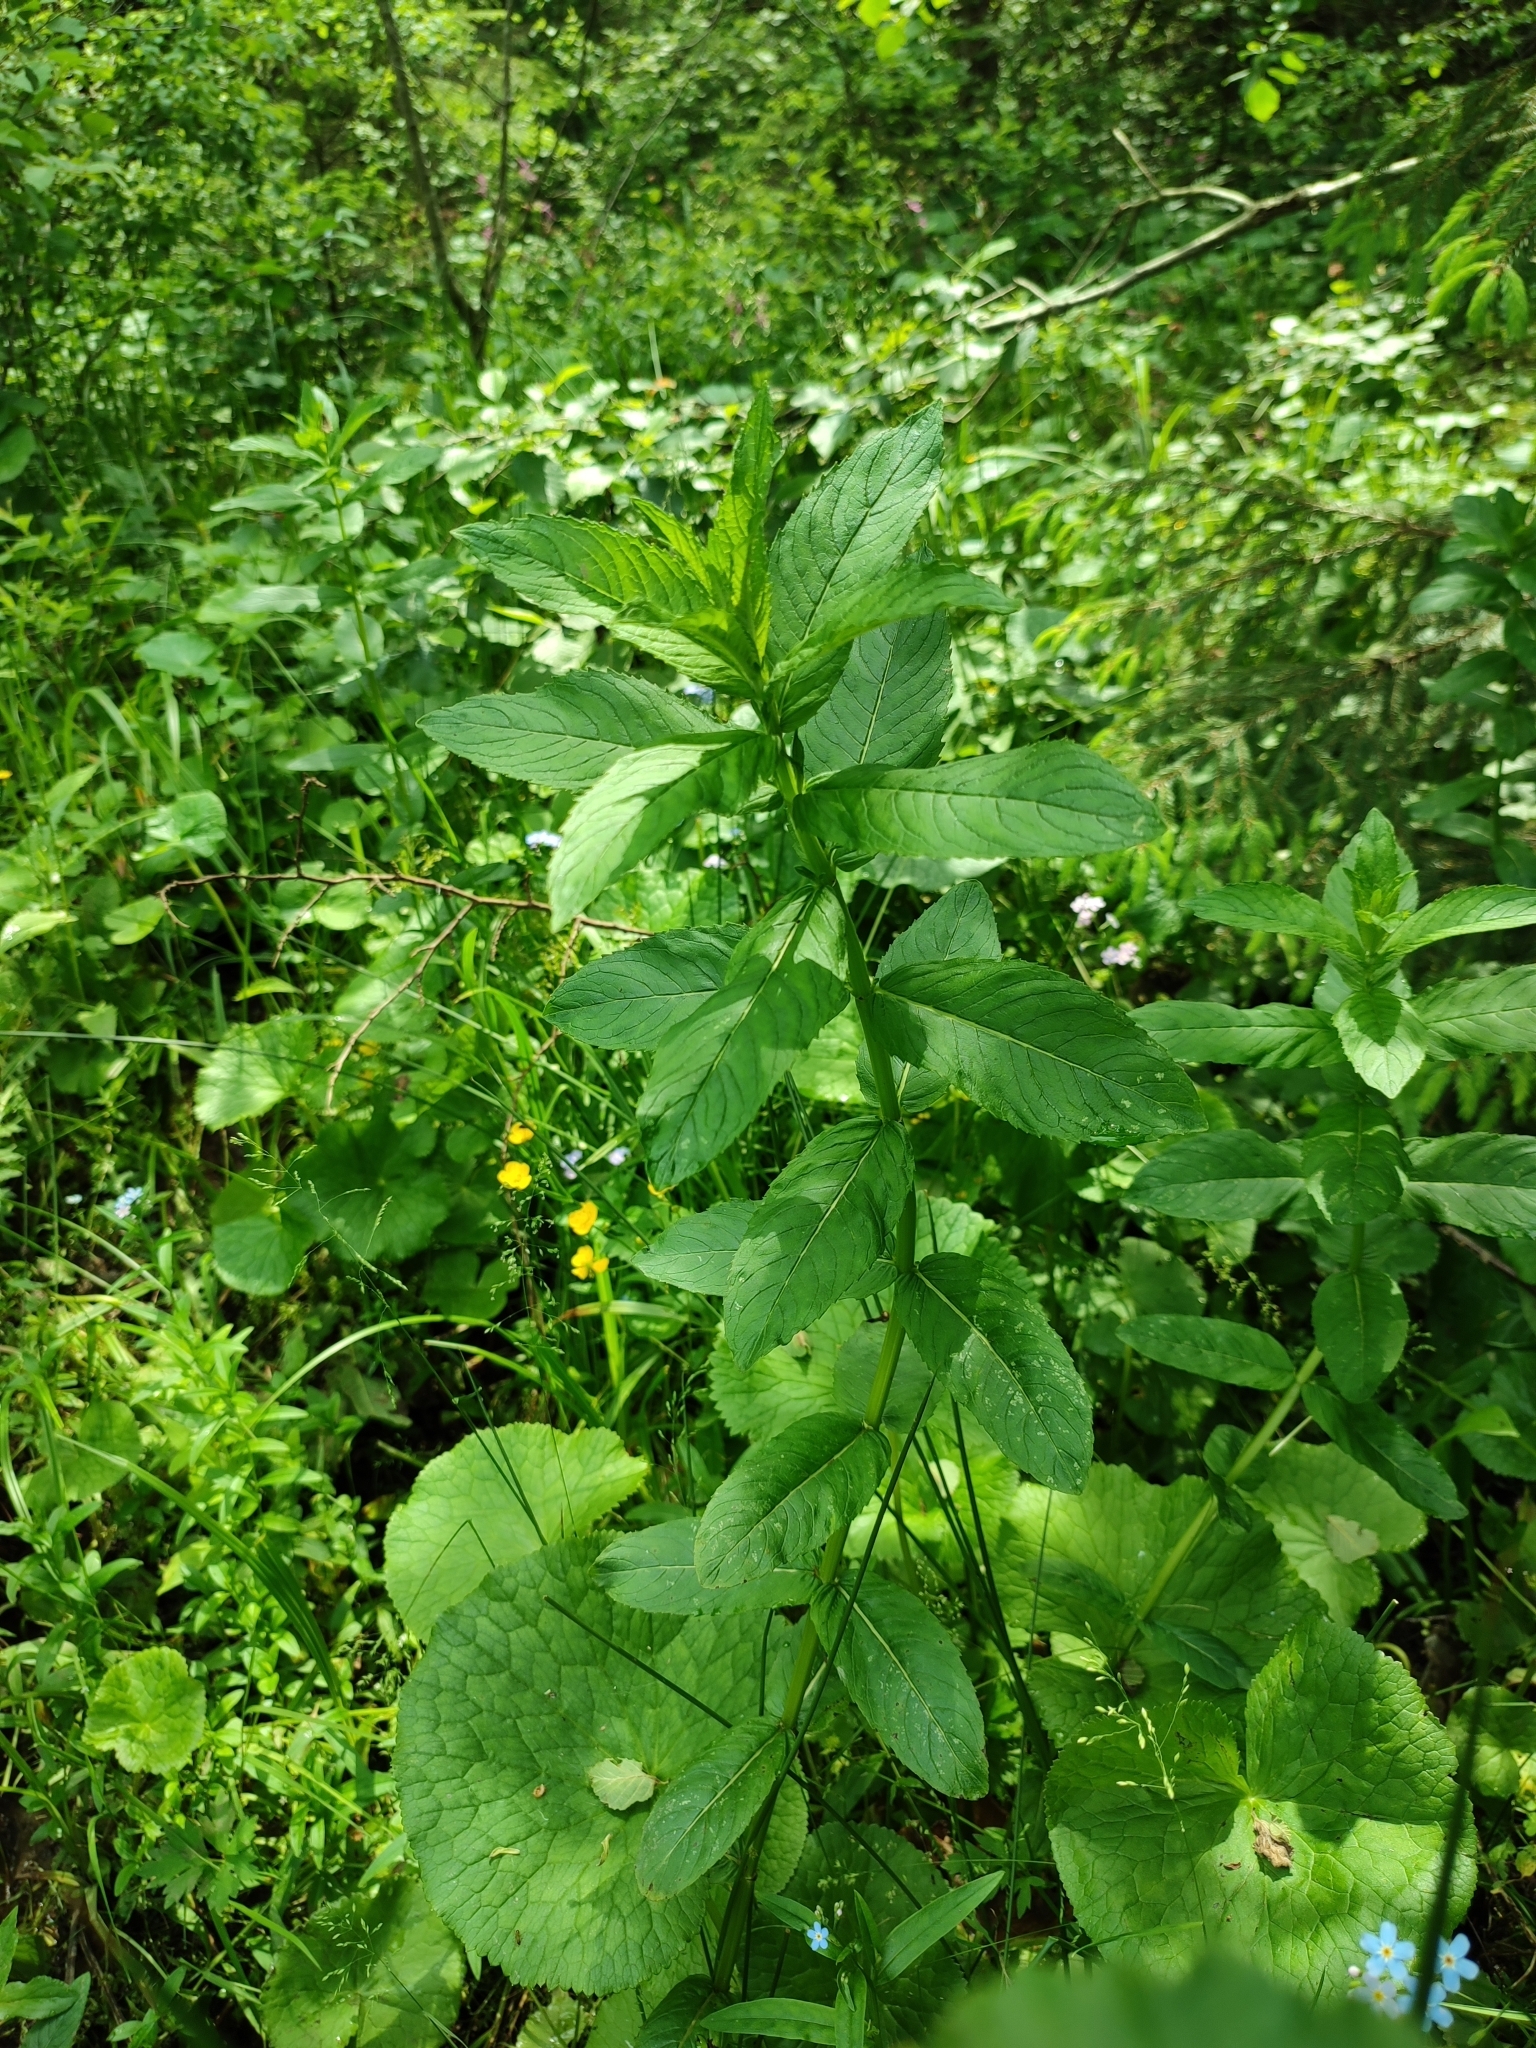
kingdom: Plantae
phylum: Tracheophyta
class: Magnoliopsida
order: Lamiales
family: Lamiaceae
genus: Mentha
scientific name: Mentha longifolia
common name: Horse mint
